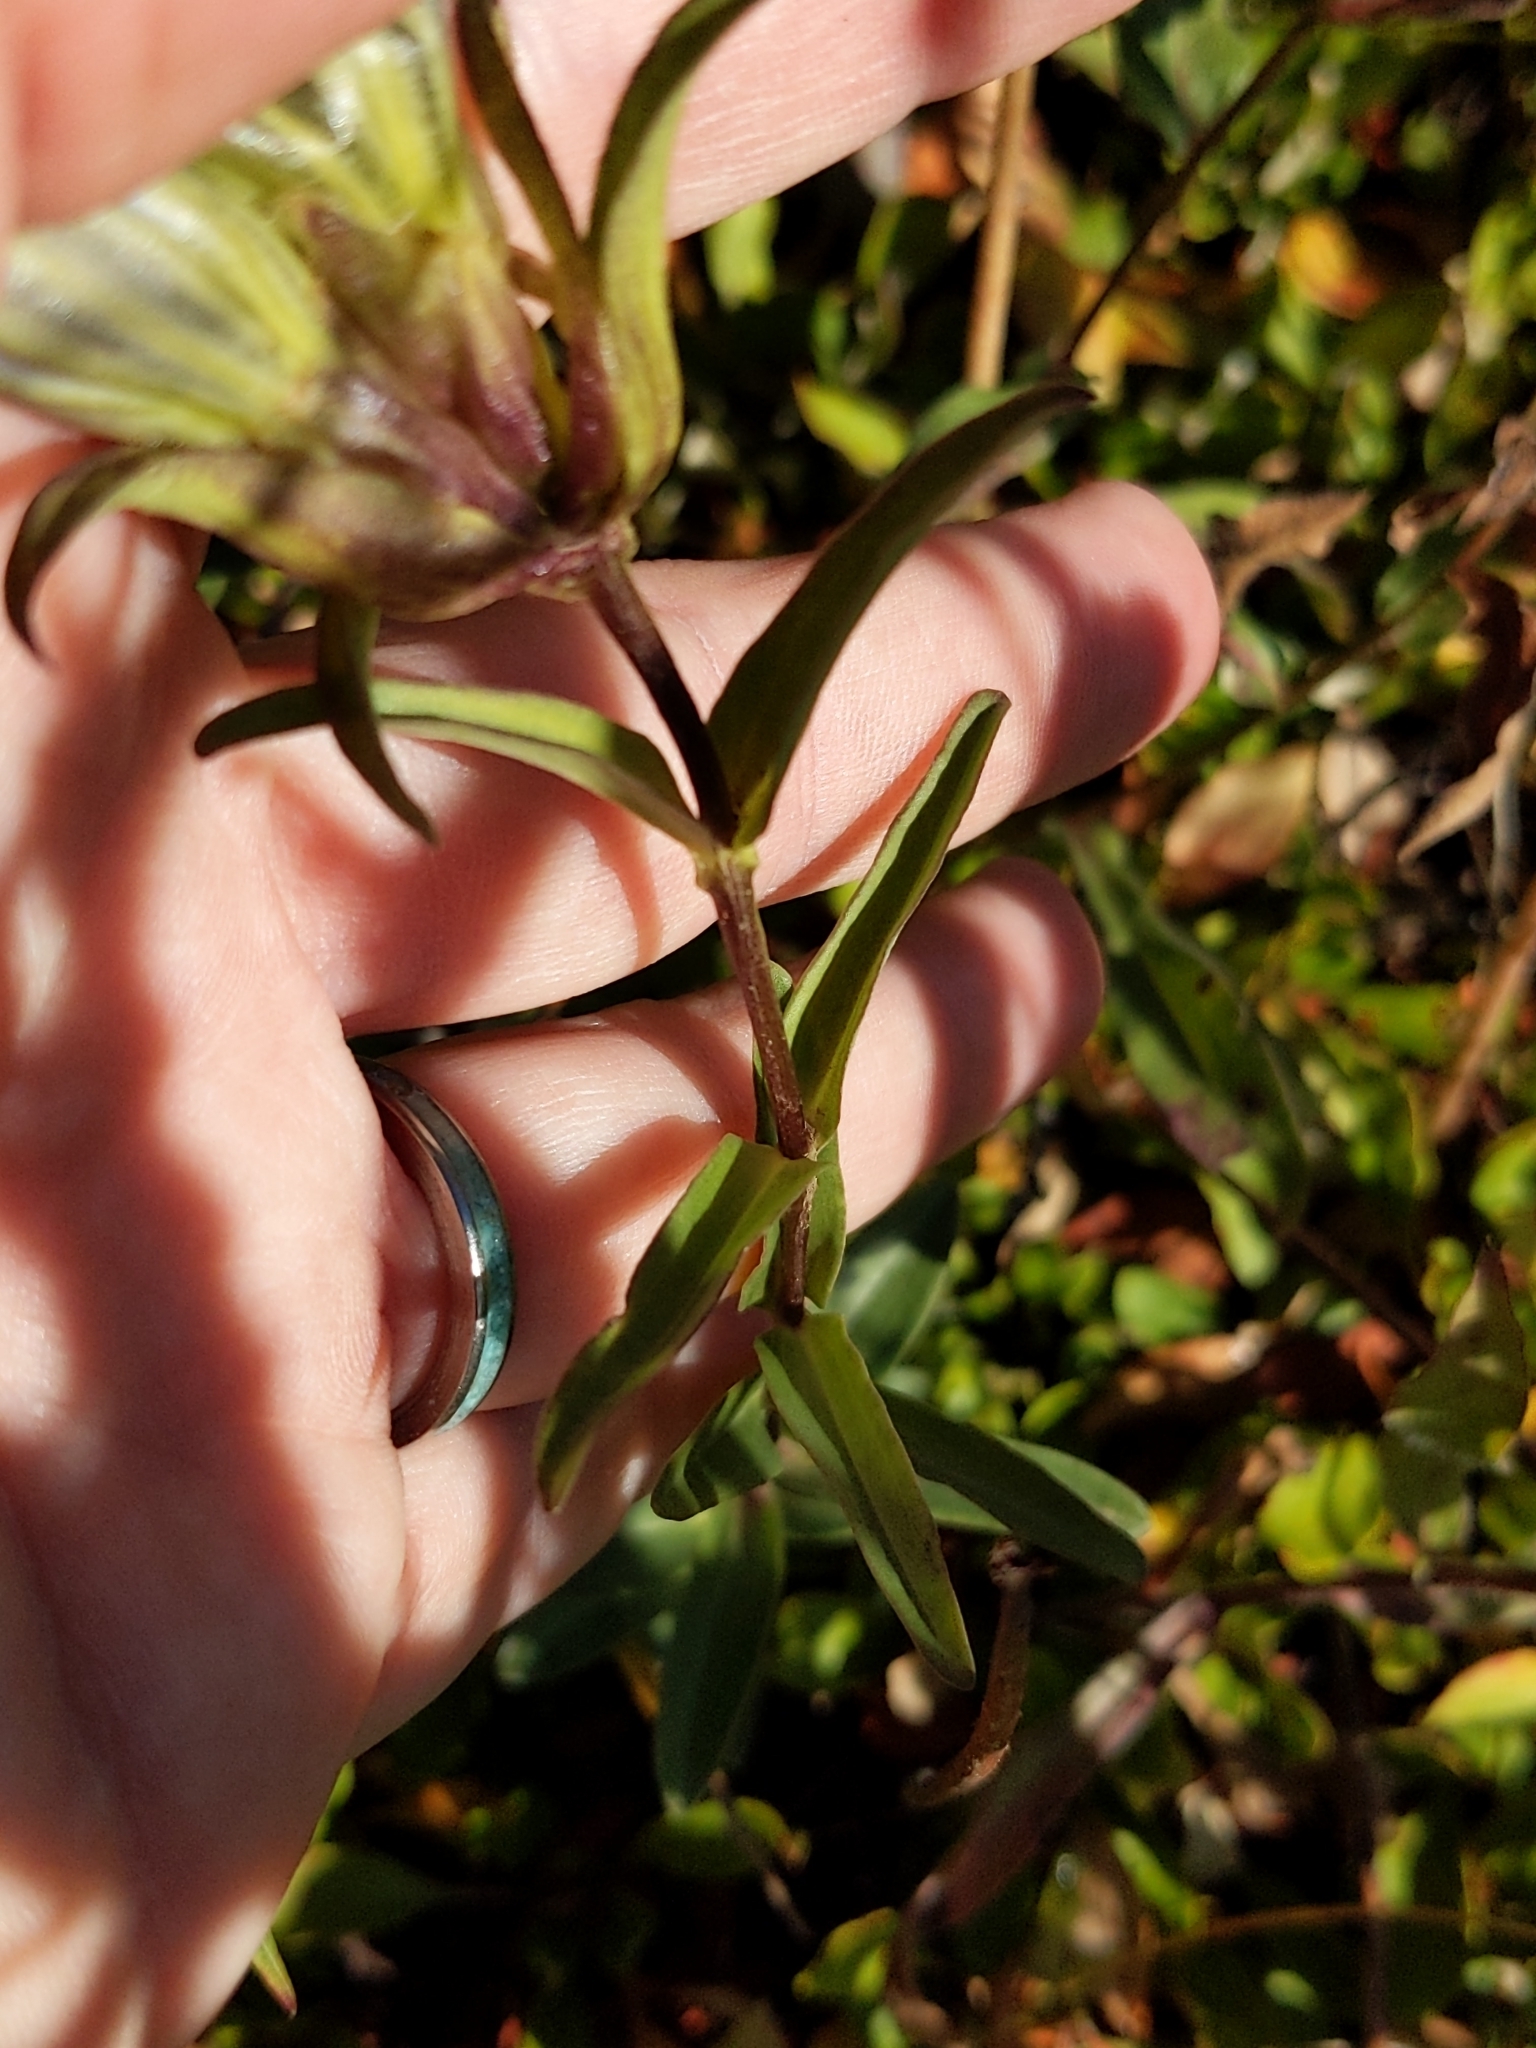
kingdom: Plantae
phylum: Tracheophyta
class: Magnoliopsida
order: Gentianales
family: Gentianaceae
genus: Gentiana
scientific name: Gentiana parryi
